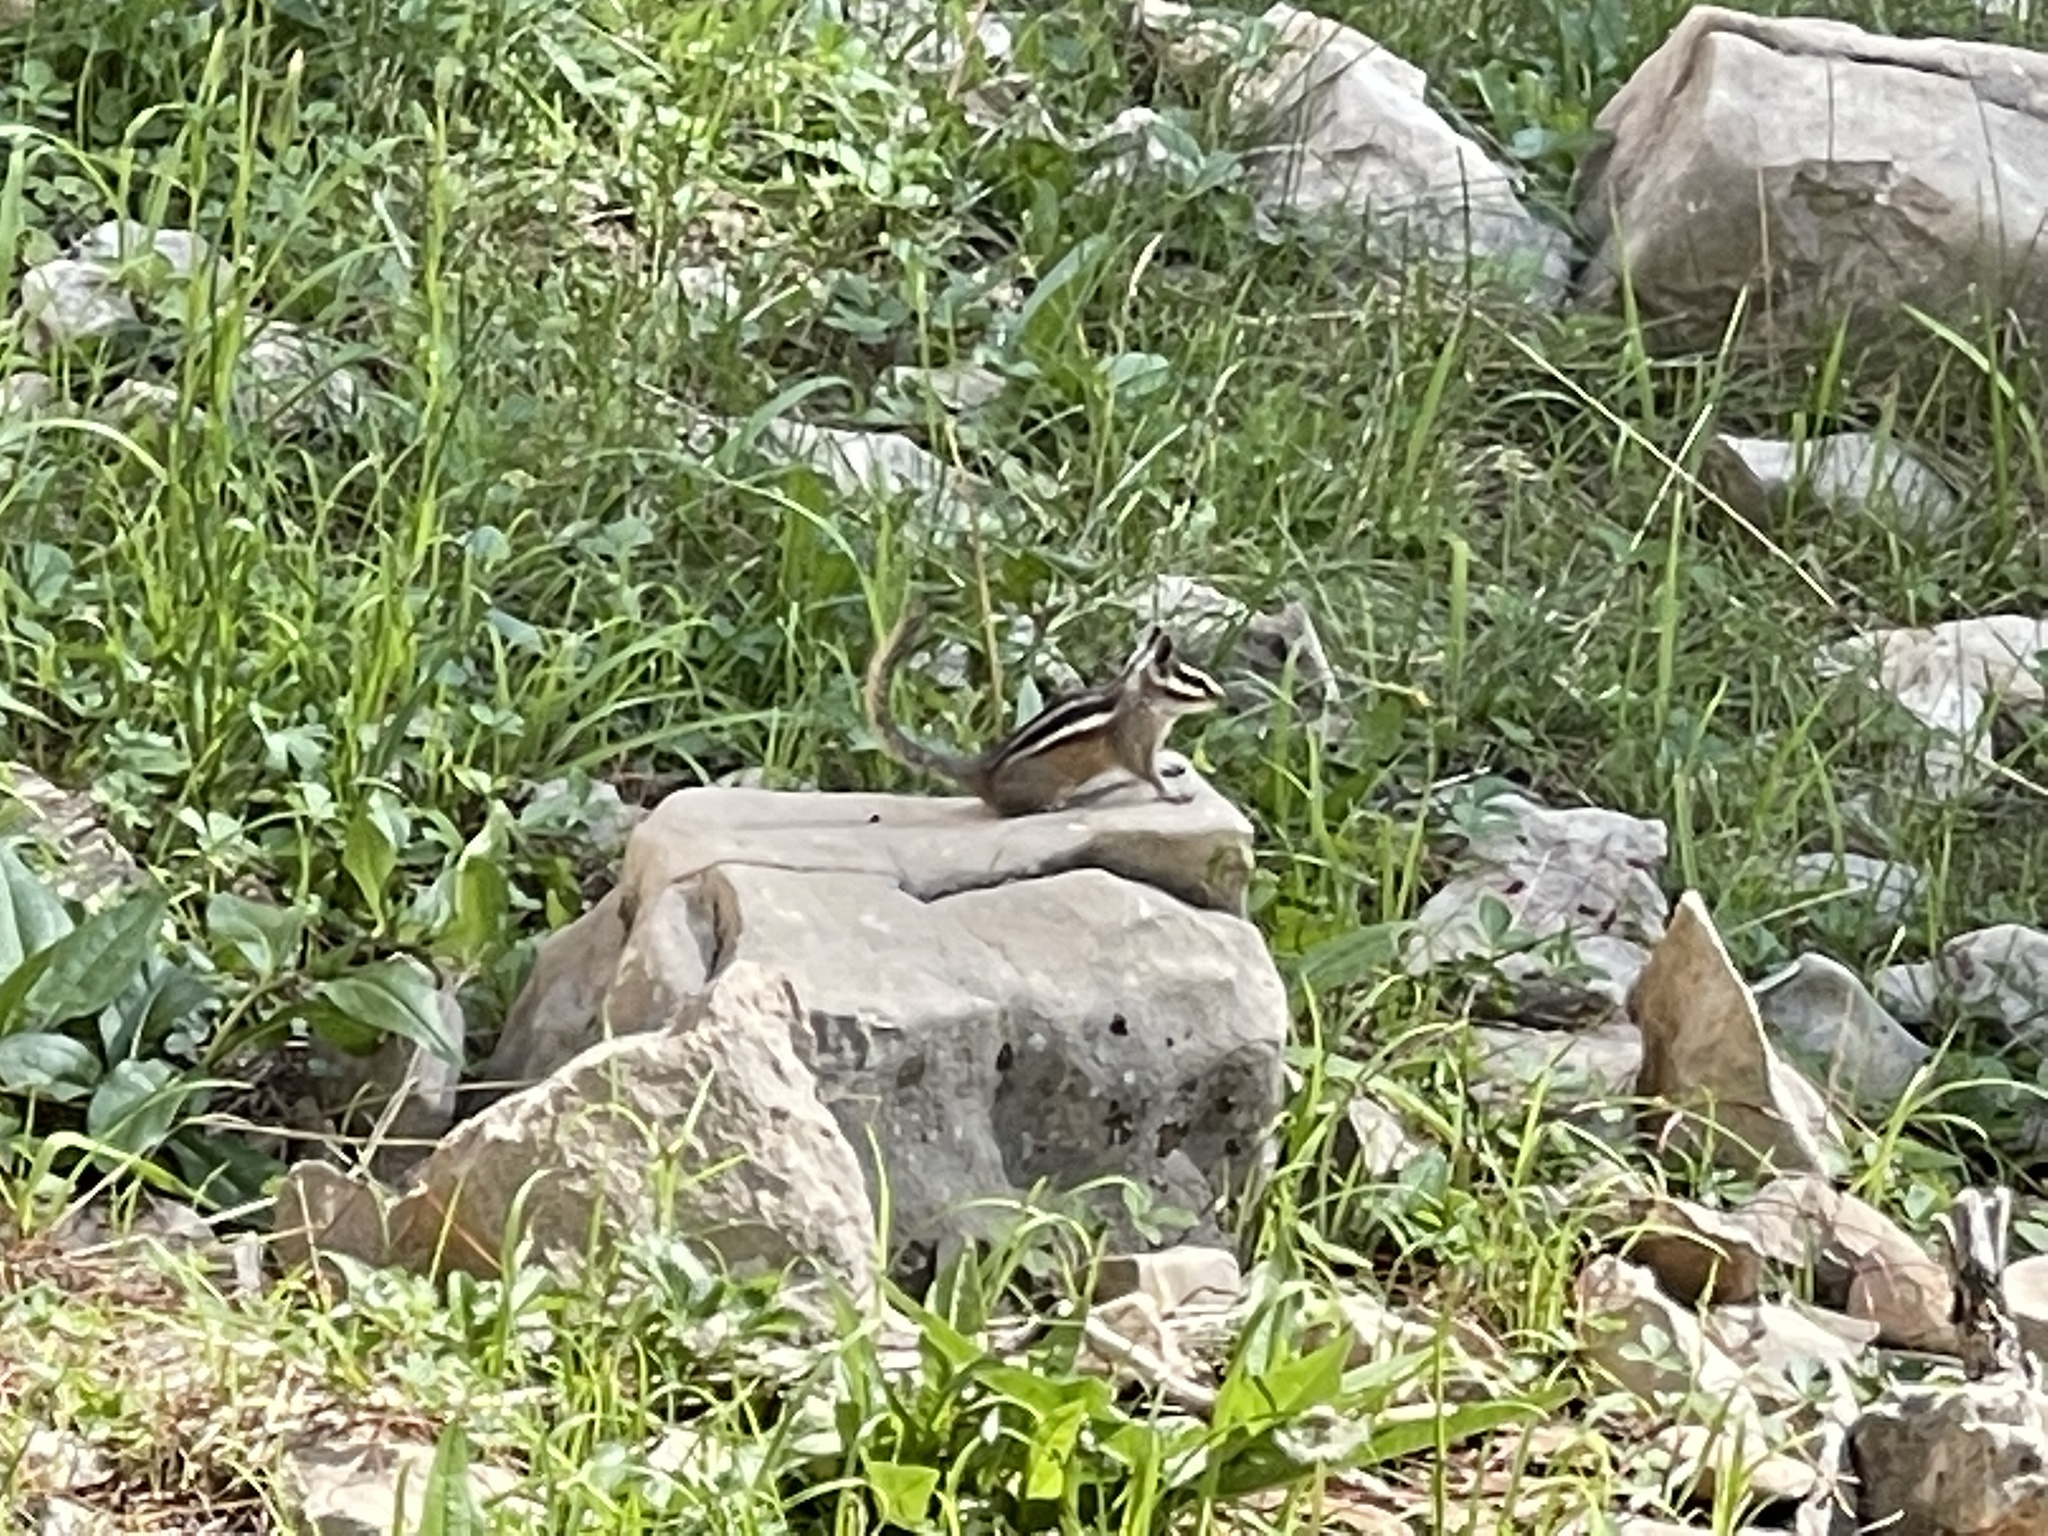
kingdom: Animalia
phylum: Chordata
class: Mammalia
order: Rodentia
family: Sciuridae
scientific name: Sciuridae
